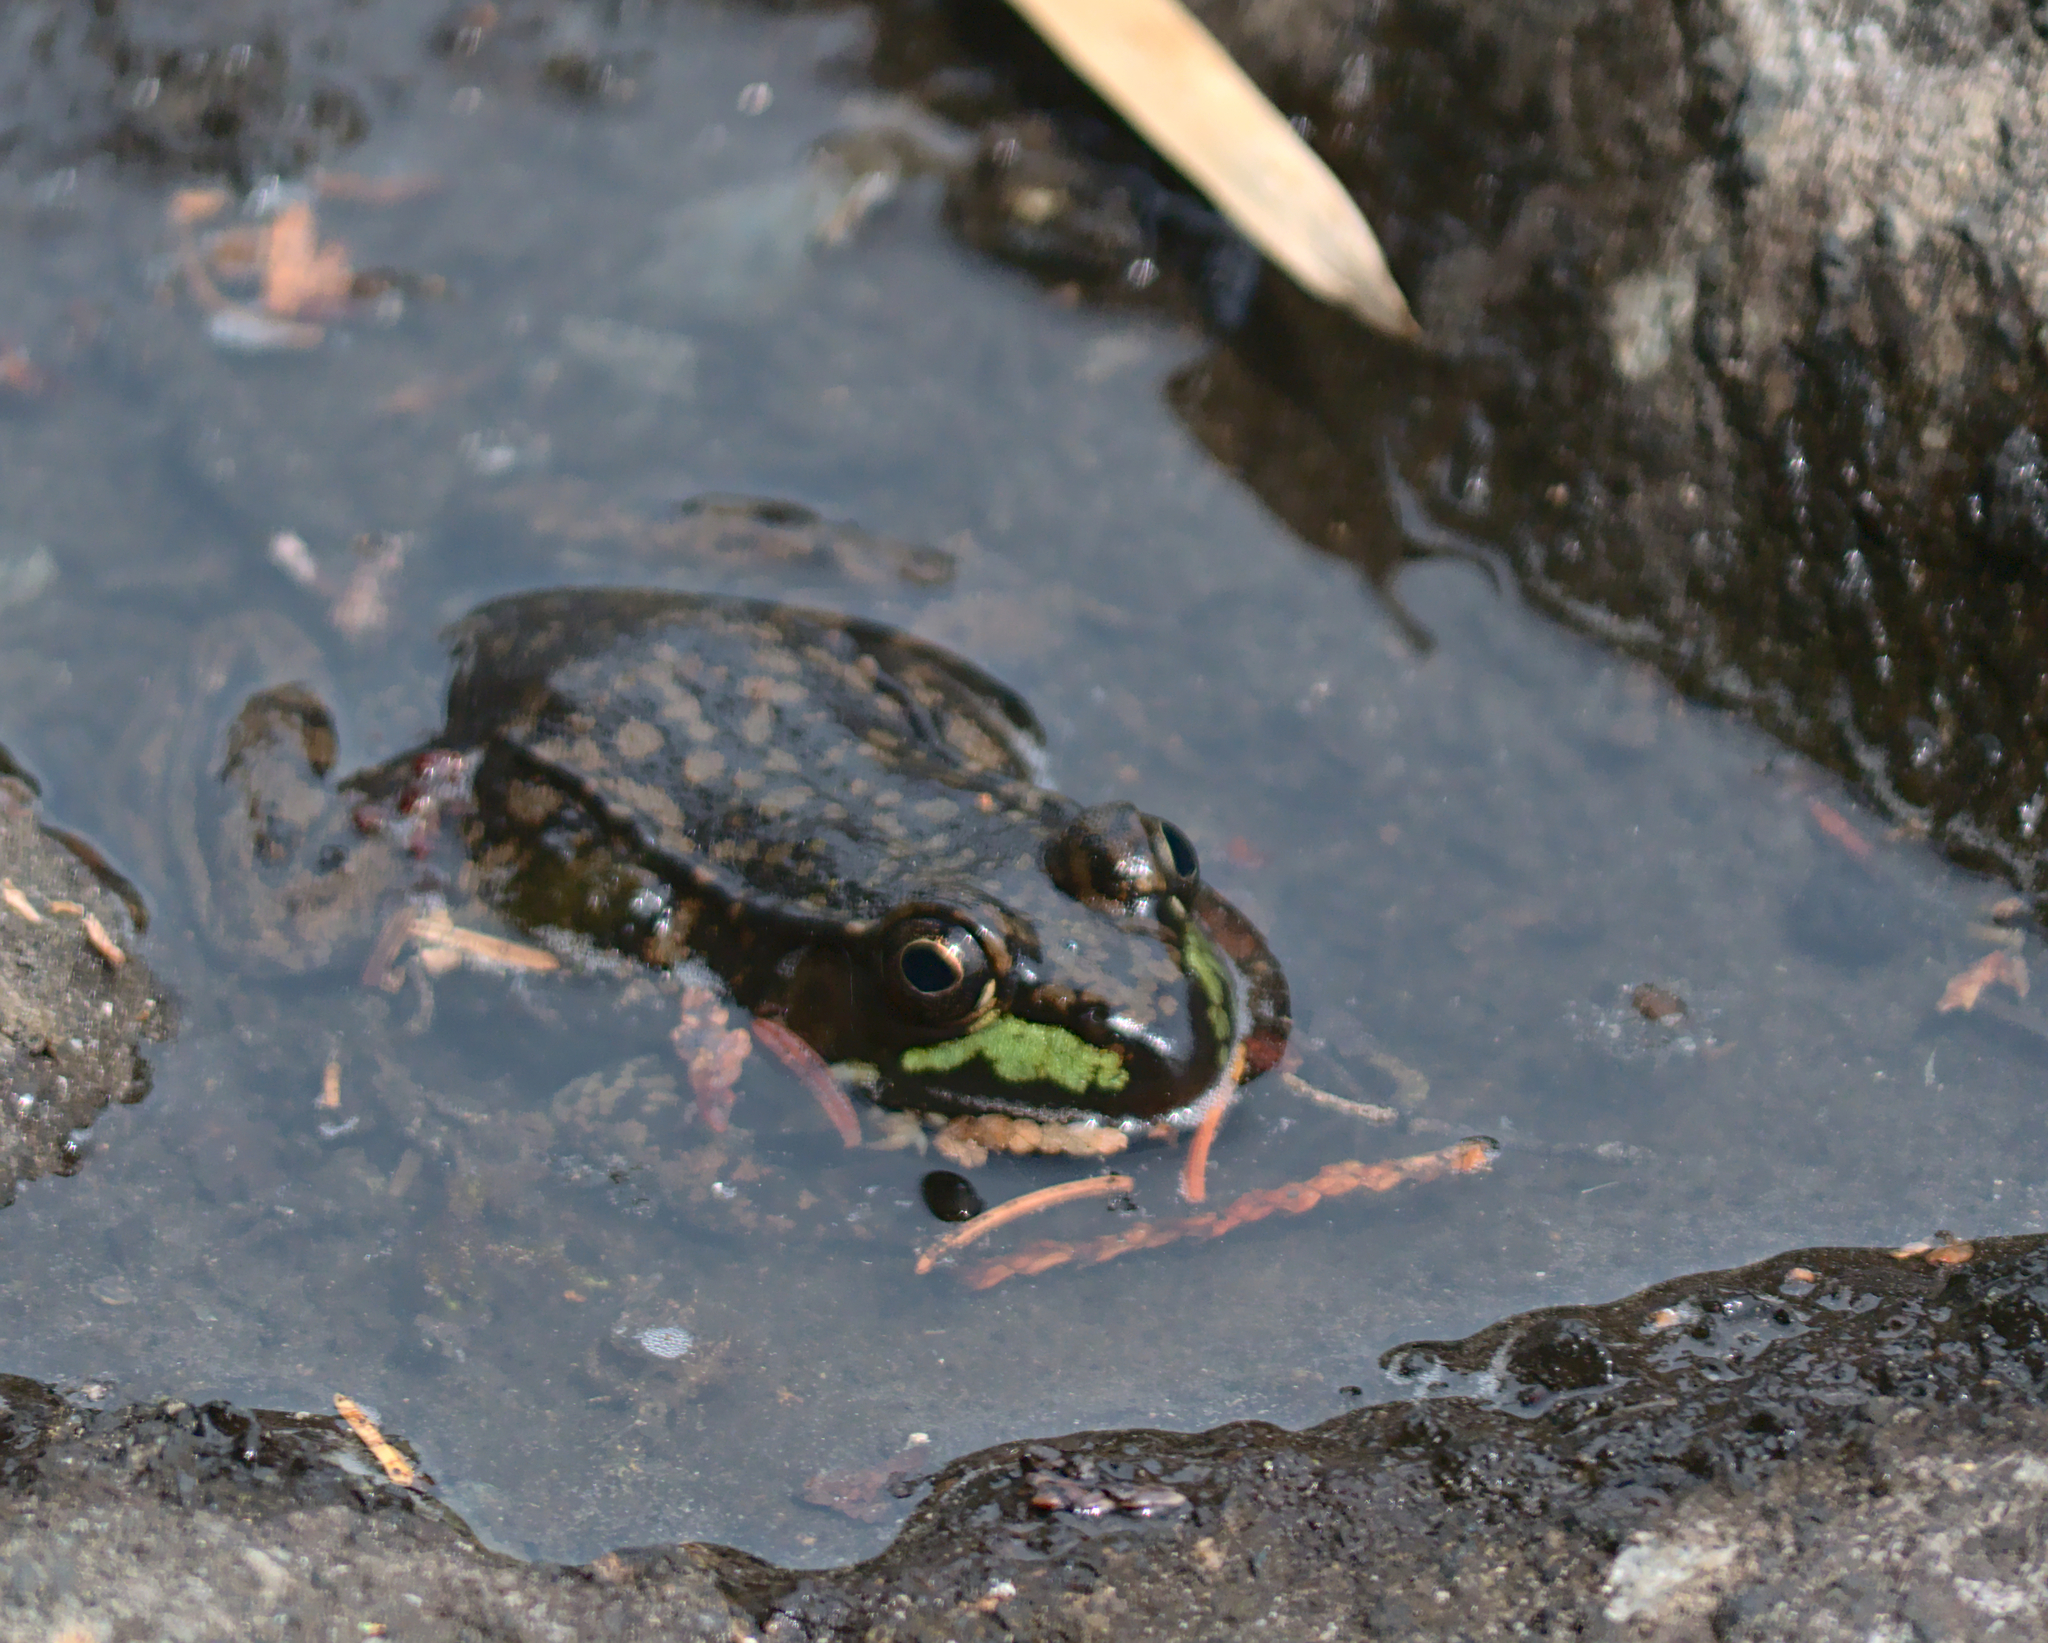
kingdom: Animalia
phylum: Chordata
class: Amphibia
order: Anura
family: Ranidae
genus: Lithobates
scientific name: Lithobates clamitans
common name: Green frog
